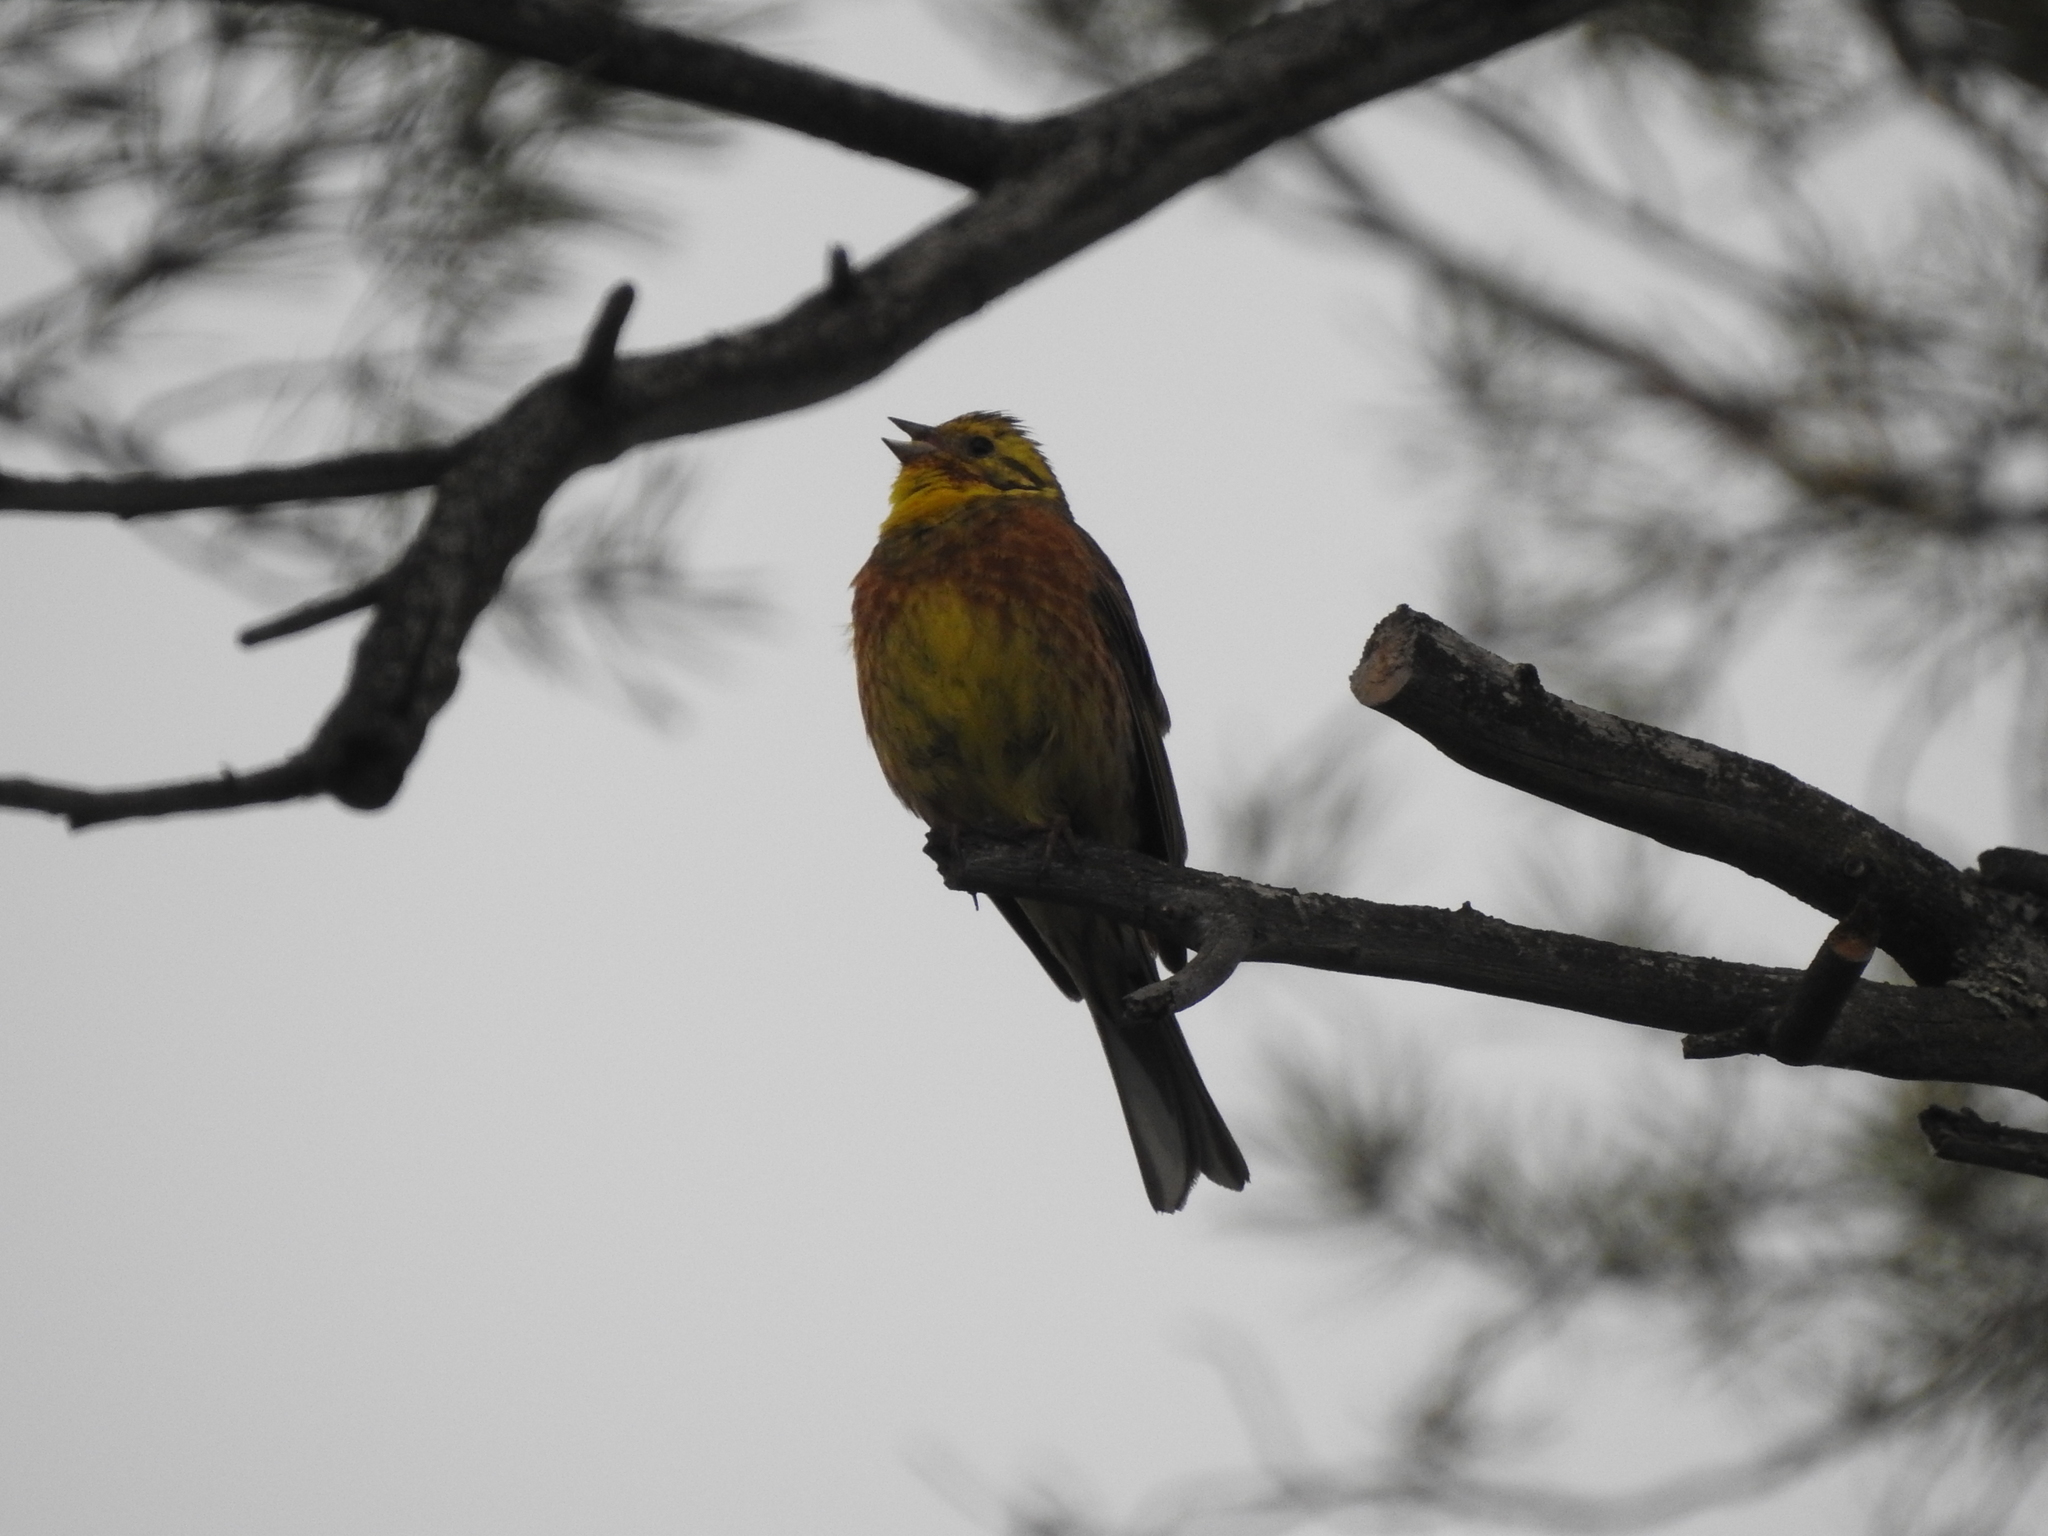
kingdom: Animalia
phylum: Chordata
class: Aves
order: Passeriformes
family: Emberizidae
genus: Emberiza
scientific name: Emberiza citrinella
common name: Yellowhammer
